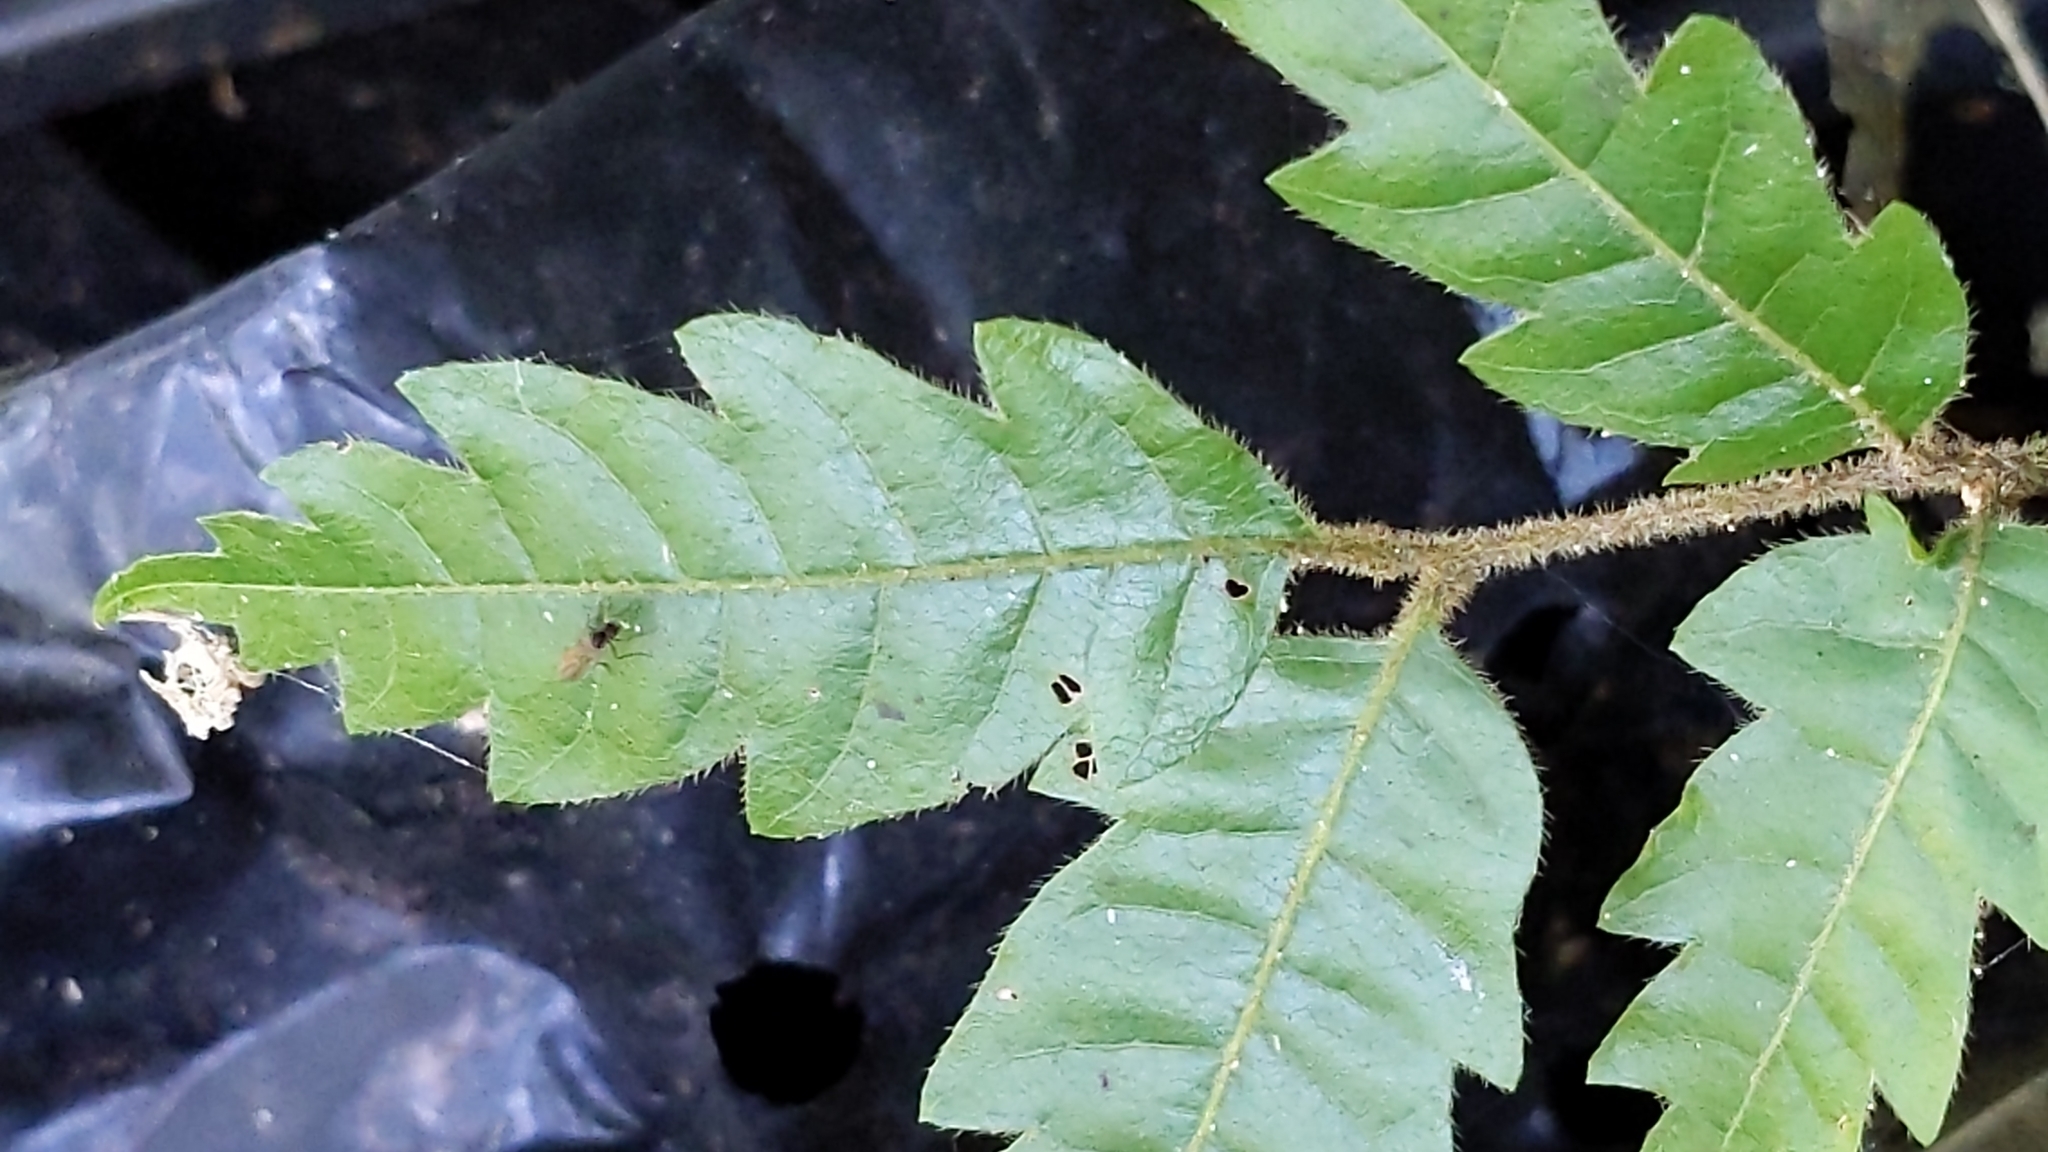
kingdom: Plantae
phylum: Tracheophyta
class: Magnoliopsida
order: Sapindales
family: Sapindaceae
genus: Alectryon
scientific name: Alectryon excelsus
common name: Three kings titoki
